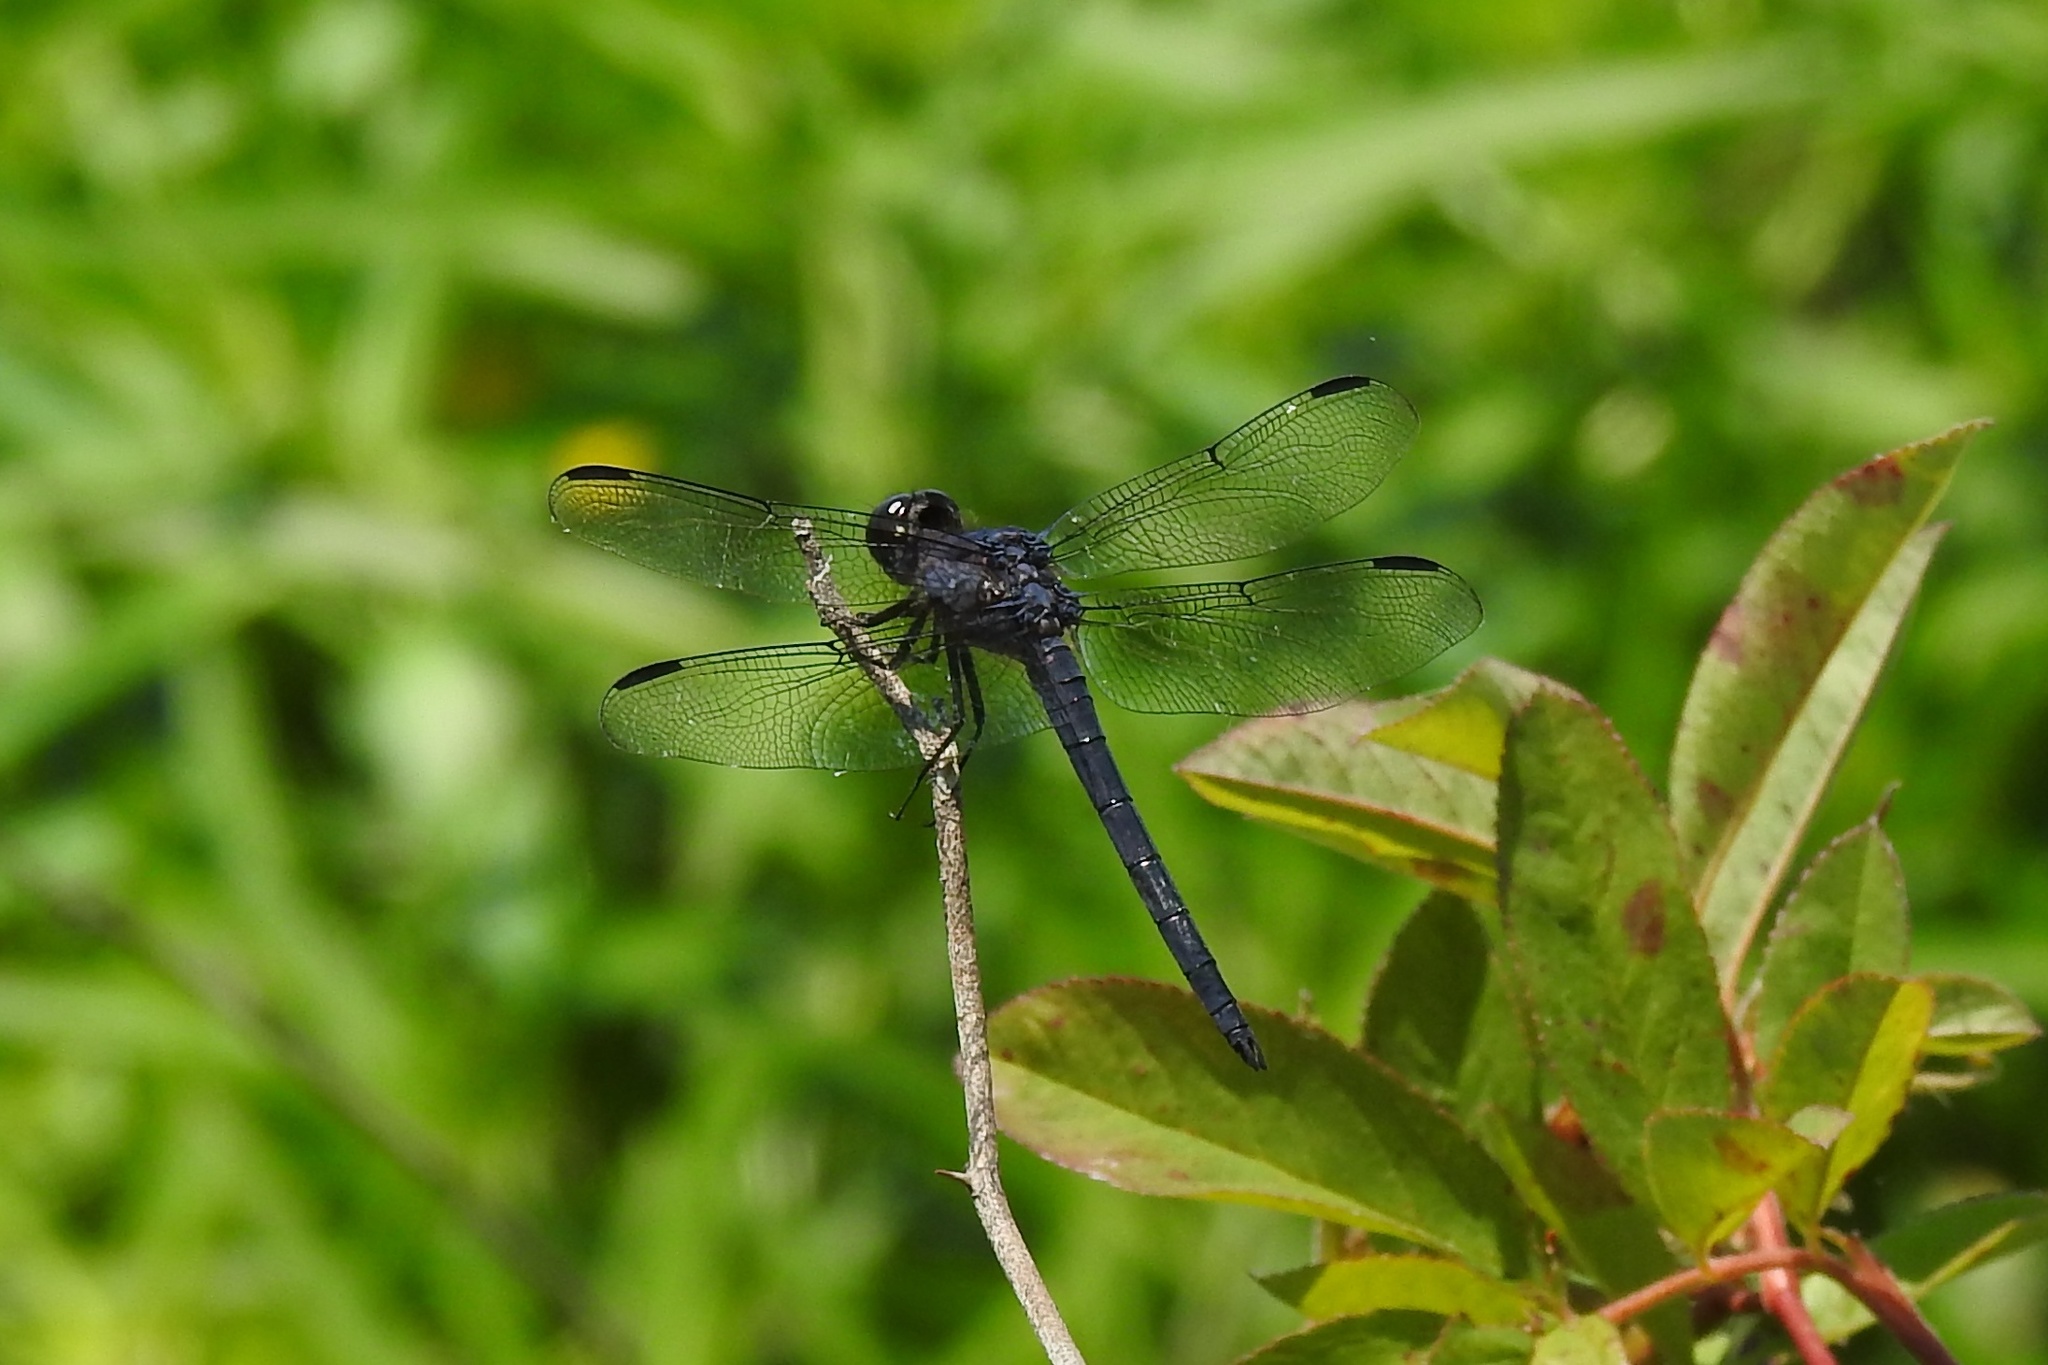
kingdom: Animalia
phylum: Arthropoda
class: Insecta
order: Odonata
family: Libellulidae
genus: Libellula
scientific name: Libellula incesta
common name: Slaty skimmer
